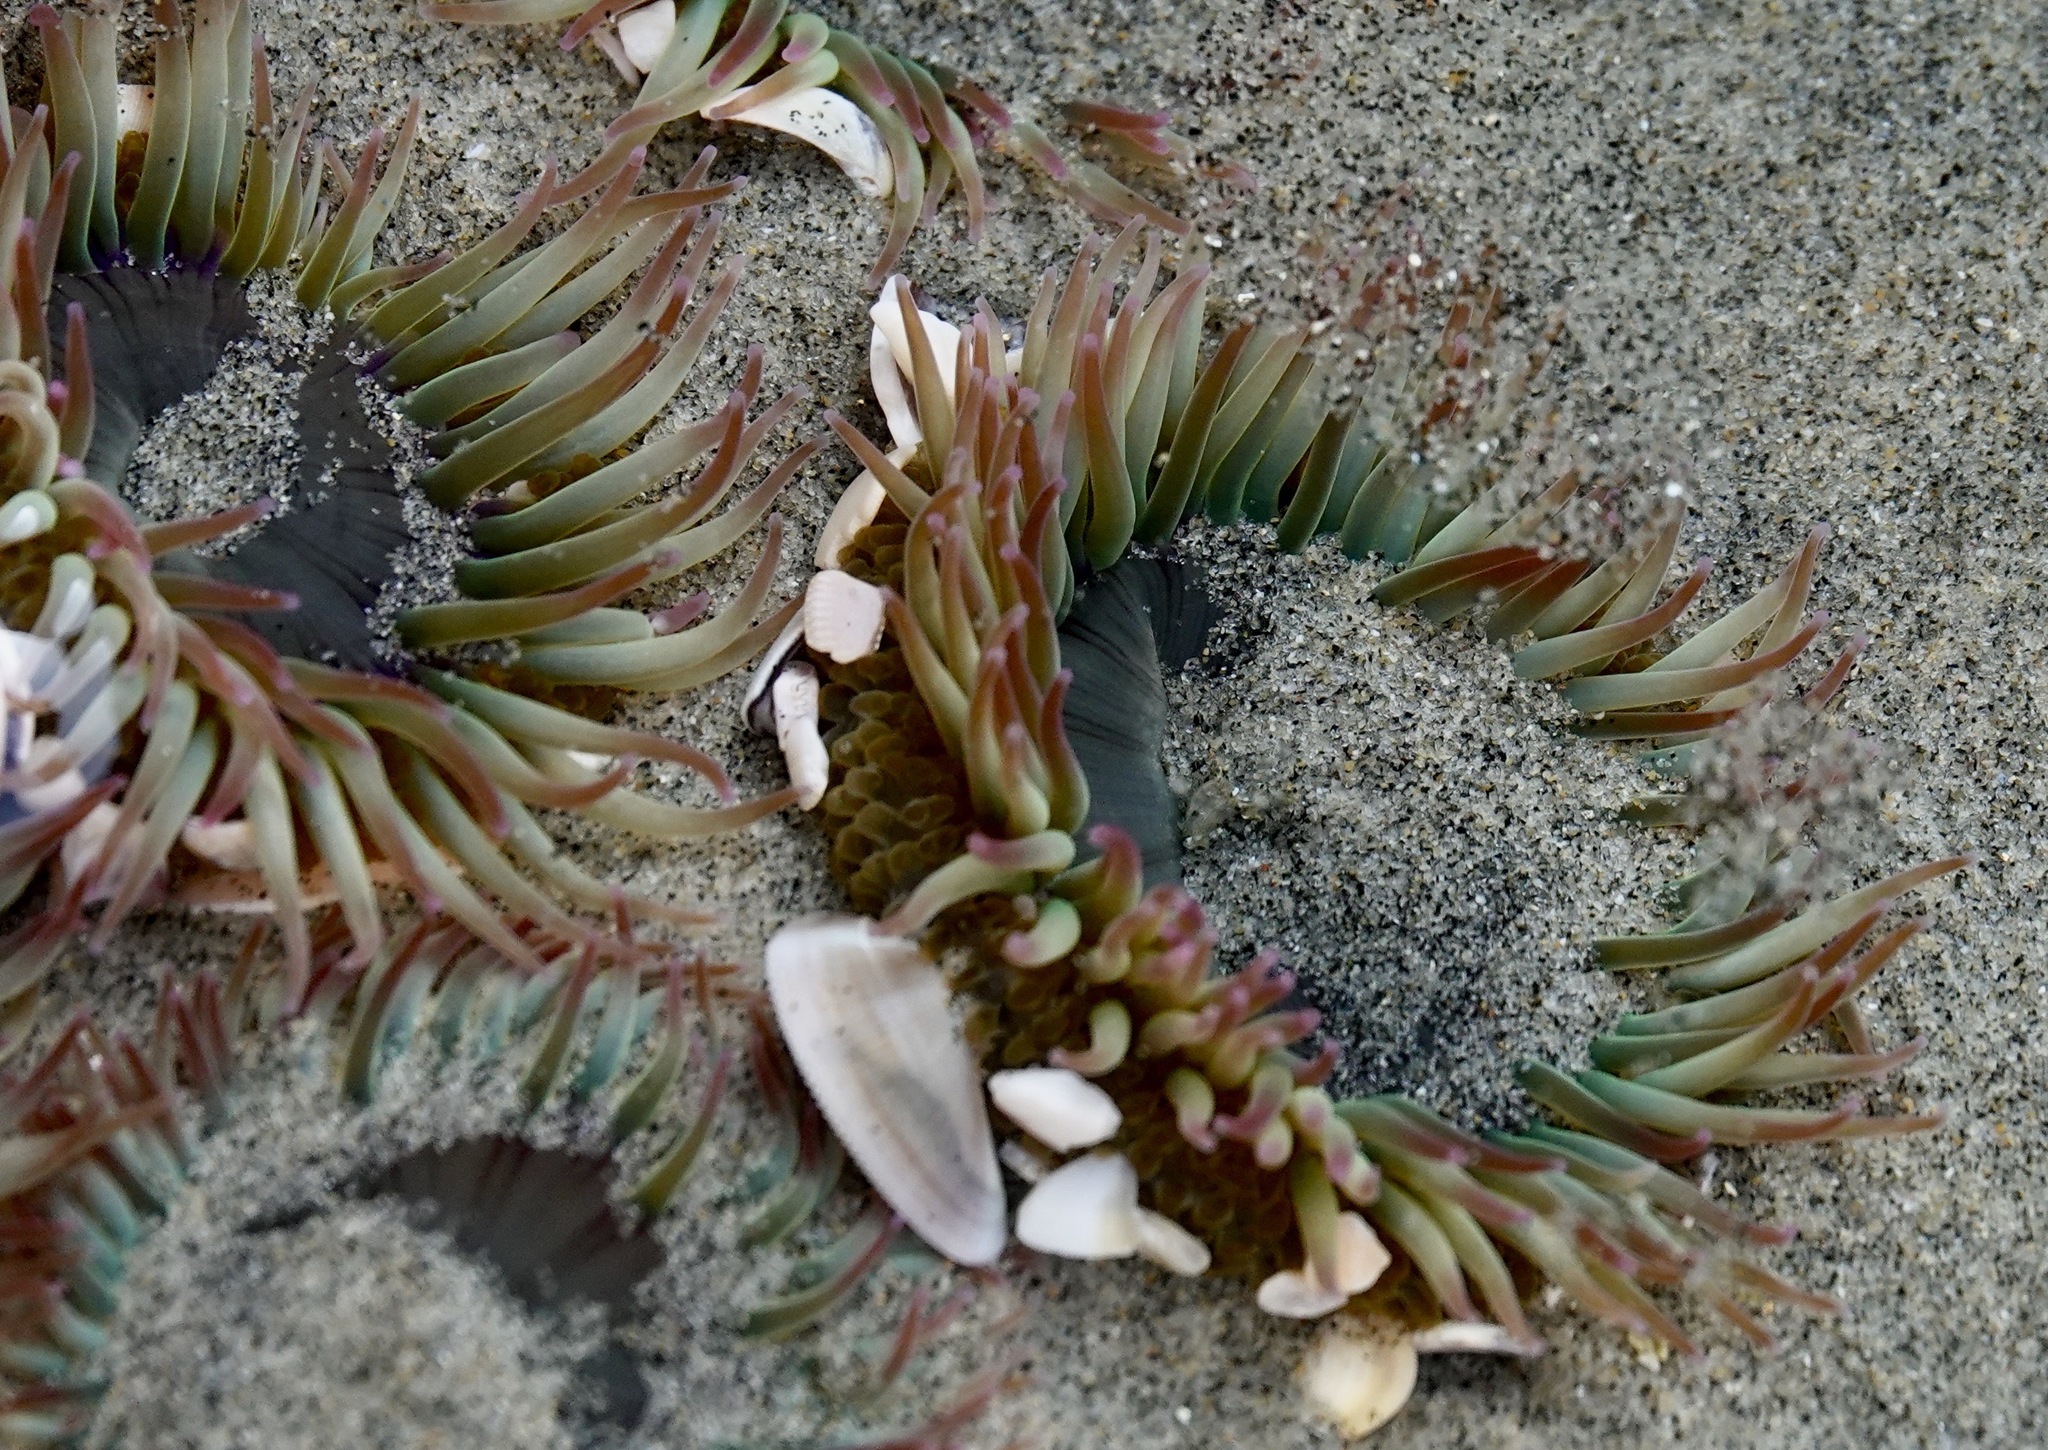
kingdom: Animalia
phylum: Cnidaria
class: Anthozoa
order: Actiniaria
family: Actiniidae
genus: Anthopleura
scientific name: Anthopleura elegantissima
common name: Clonal anemone
